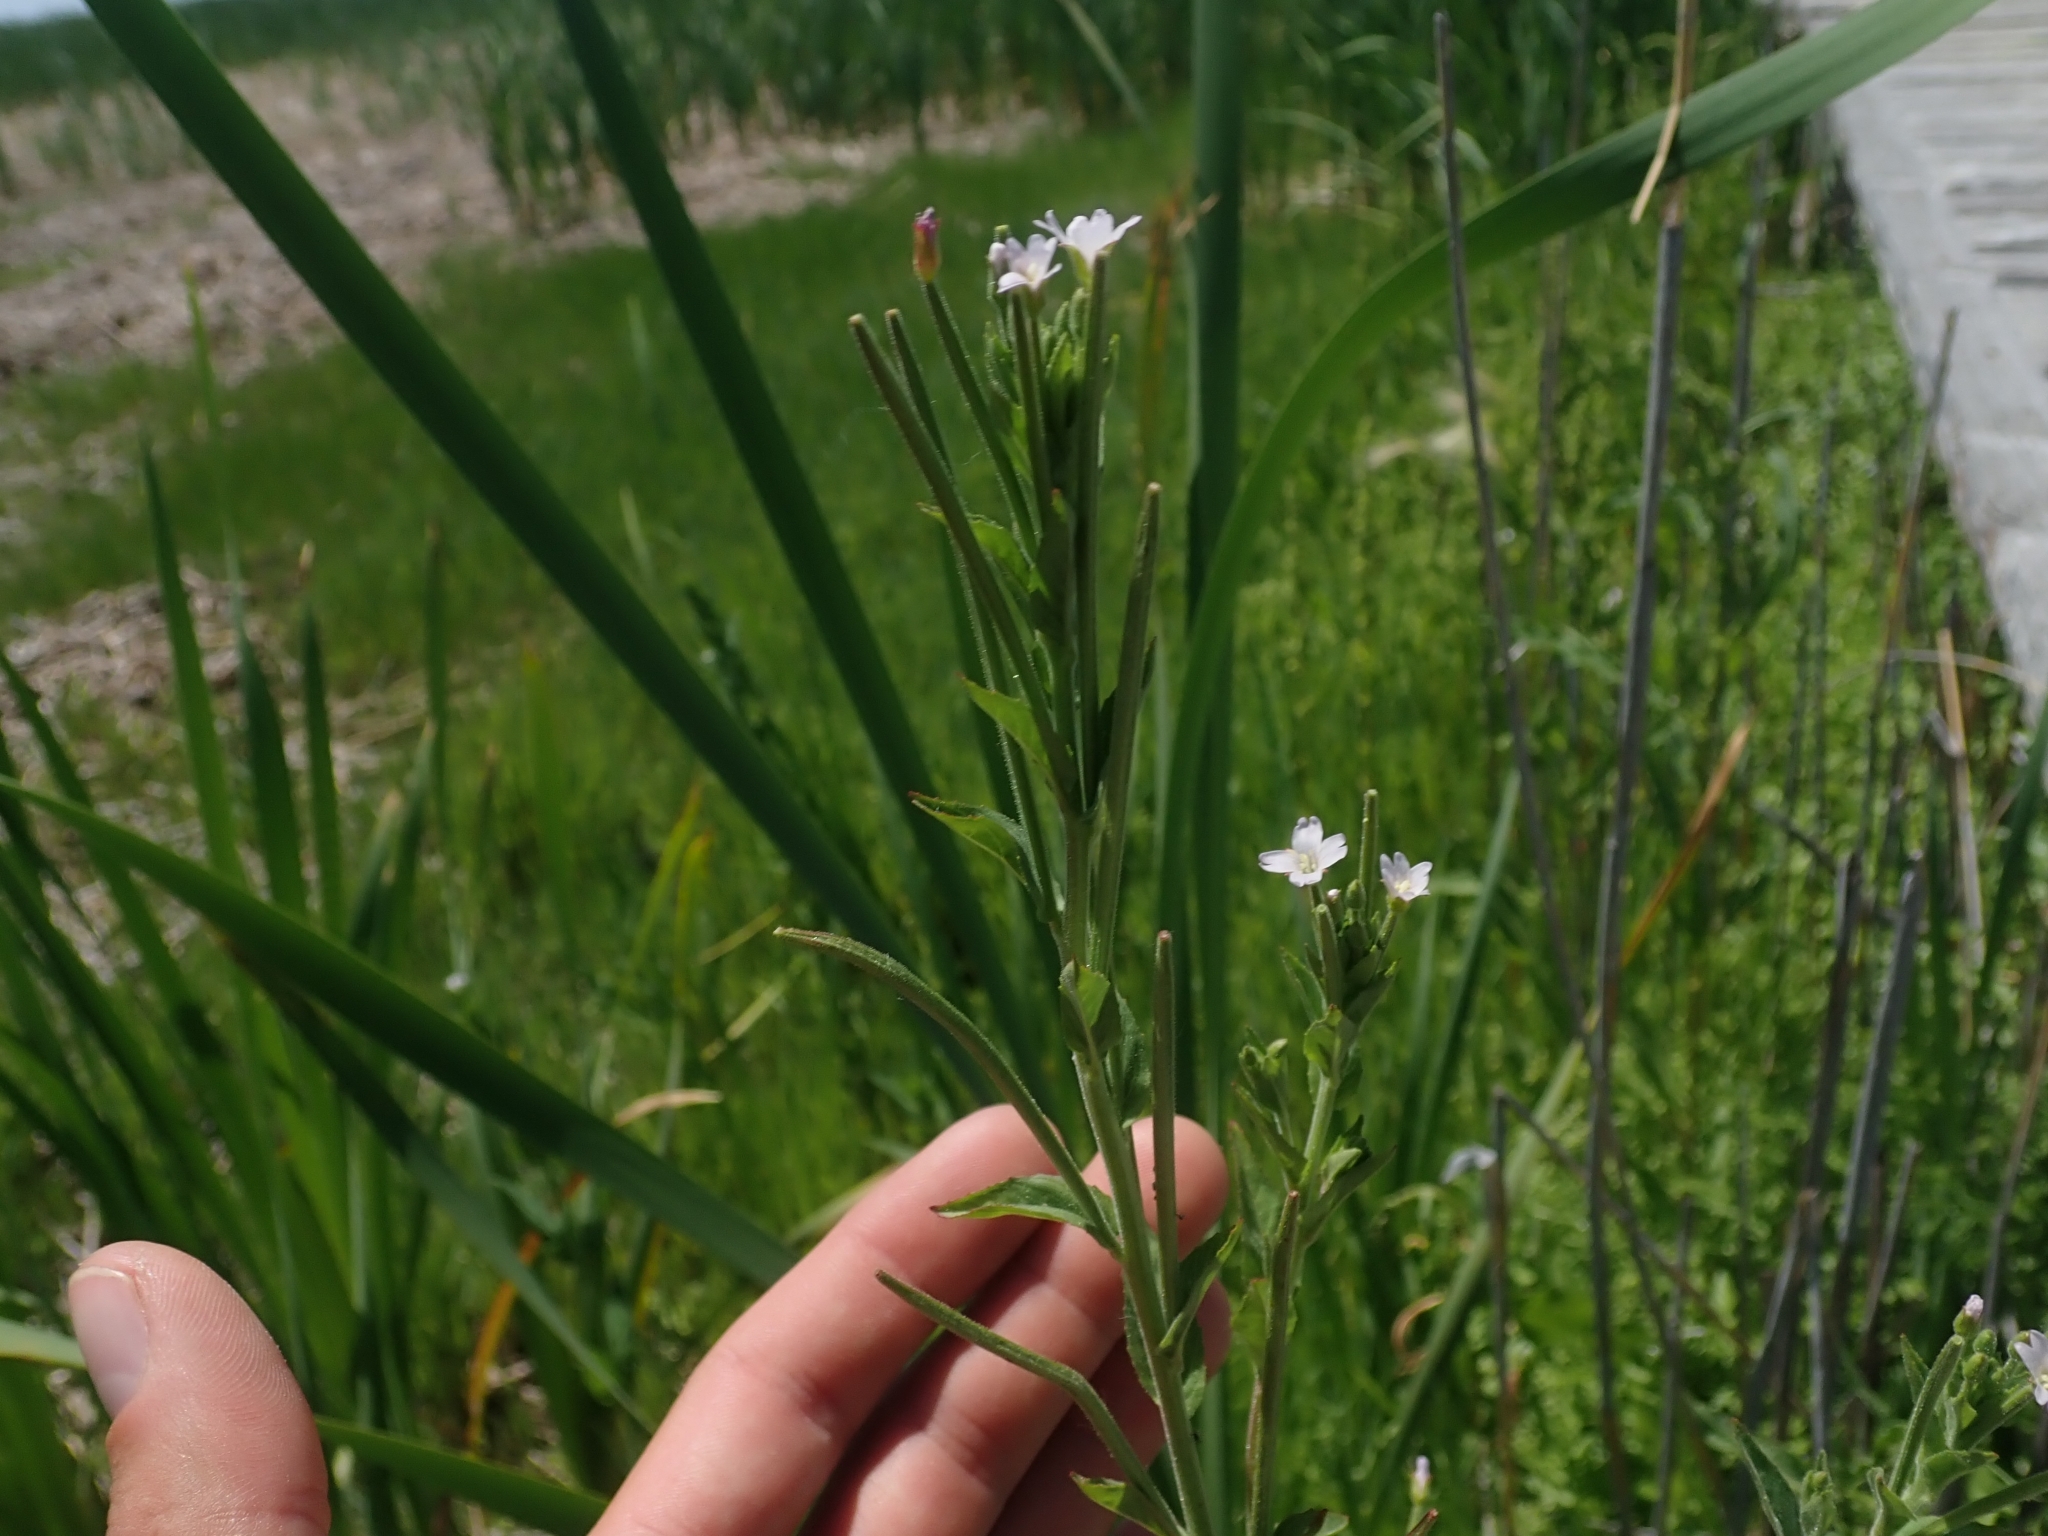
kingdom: Plantae
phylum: Tracheophyta
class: Magnoliopsida
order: Myrtales
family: Onagraceae
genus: Epilobium
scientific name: Epilobium ciliatum
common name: American willowherb
